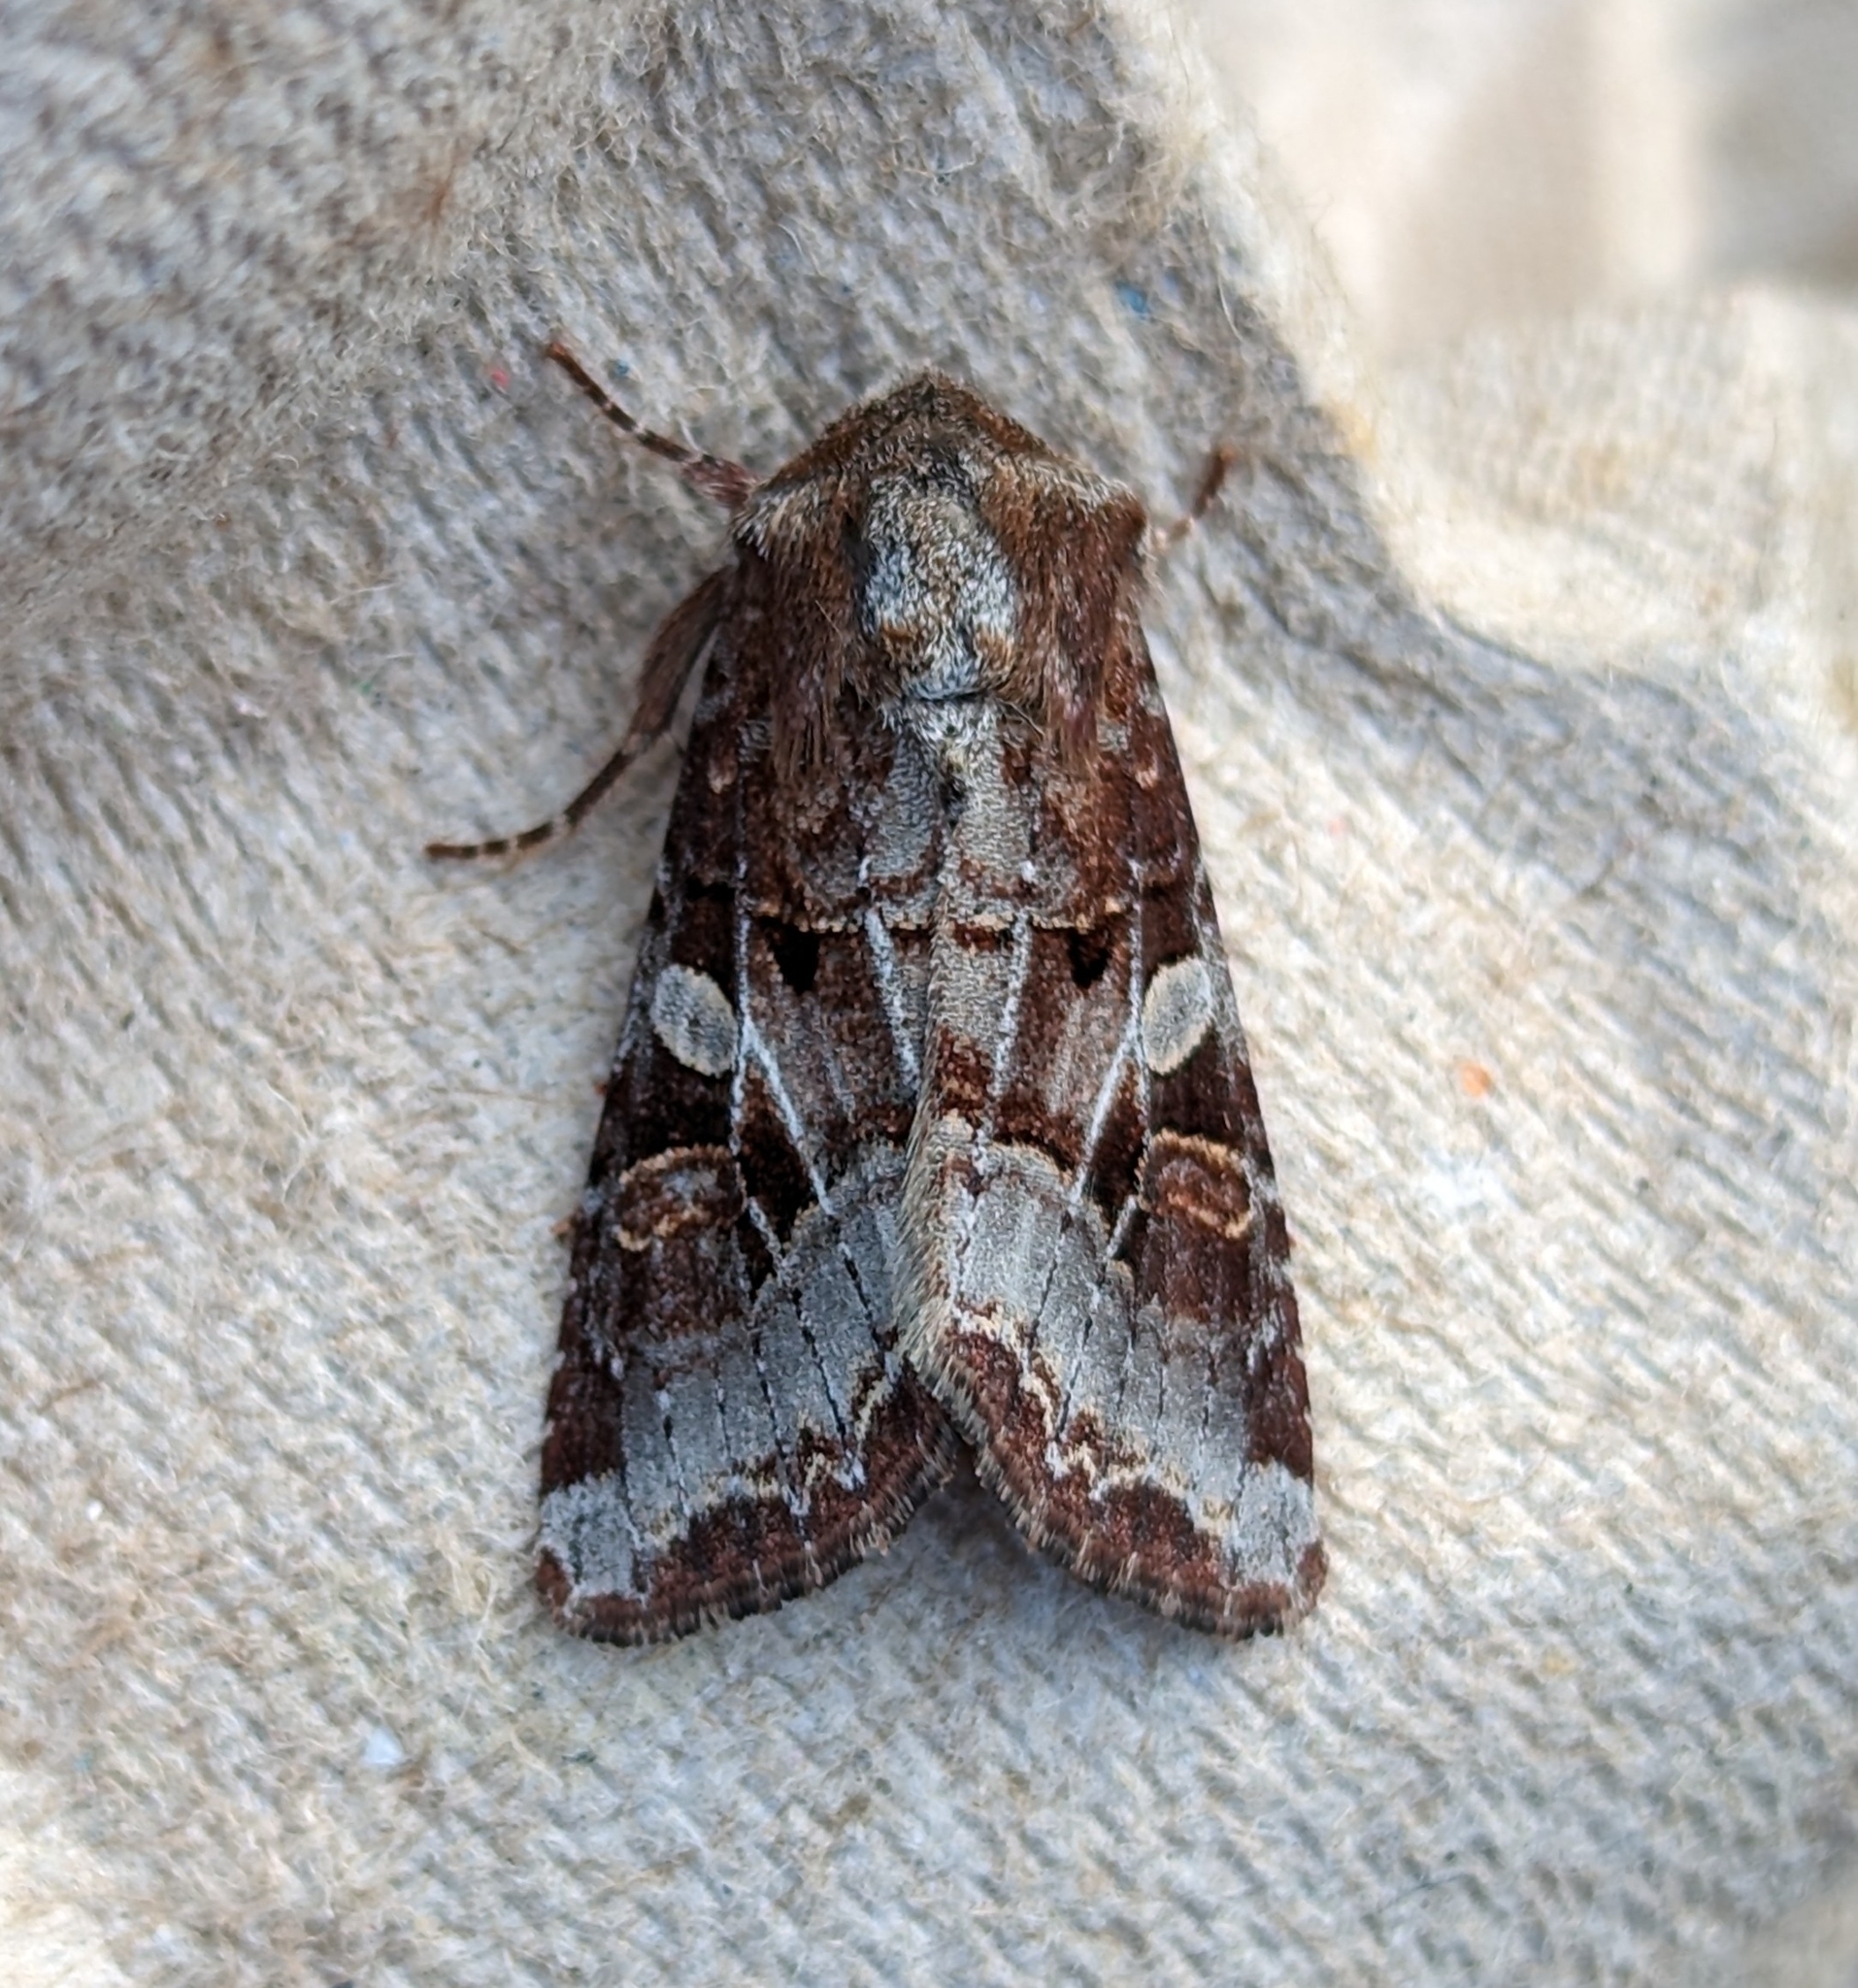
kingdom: Animalia
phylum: Arthropoda
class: Insecta
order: Lepidoptera
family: Noctuidae
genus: Trichordestra
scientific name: Trichordestra tacoma
